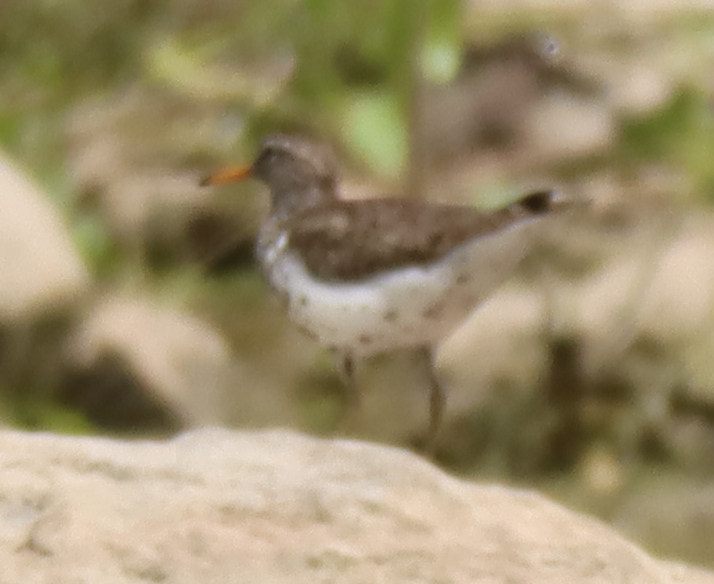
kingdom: Animalia
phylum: Chordata
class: Aves
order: Charadriiformes
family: Scolopacidae
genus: Actitis
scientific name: Actitis macularius
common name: Spotted sandpiper
